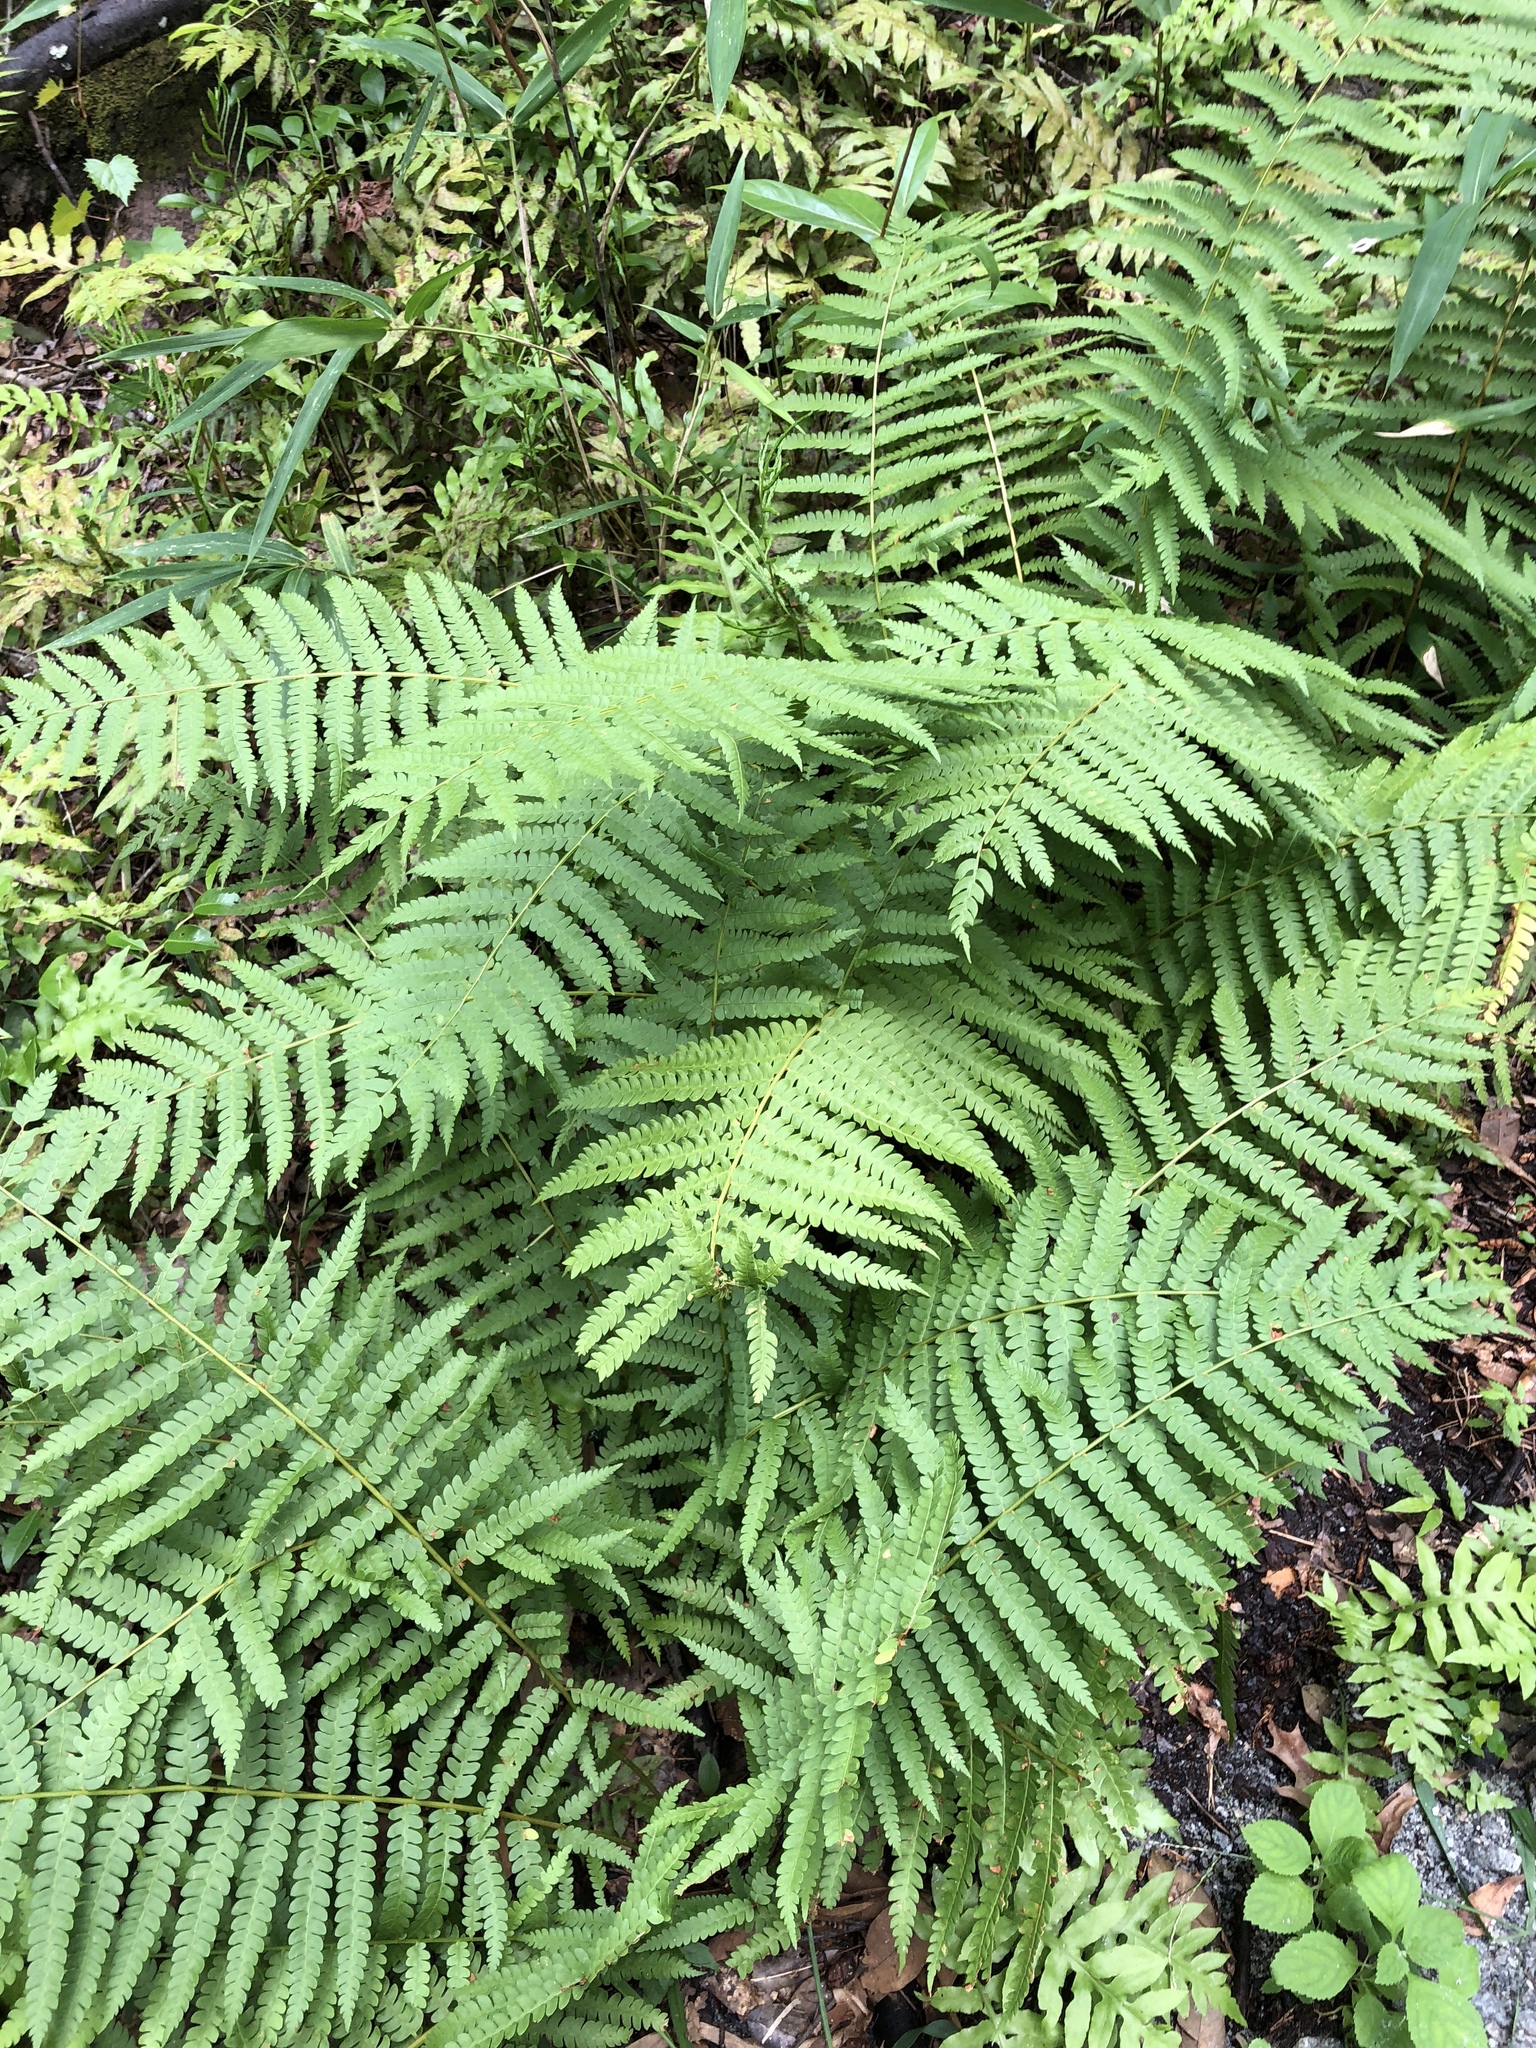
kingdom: Plantae
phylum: Tracheophyta
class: Polypodiopsida
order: Osmundales
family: Osmundaceae
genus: Osmundastrum
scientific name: Osmundastrum cinnamomeum
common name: Cinnamon fern
